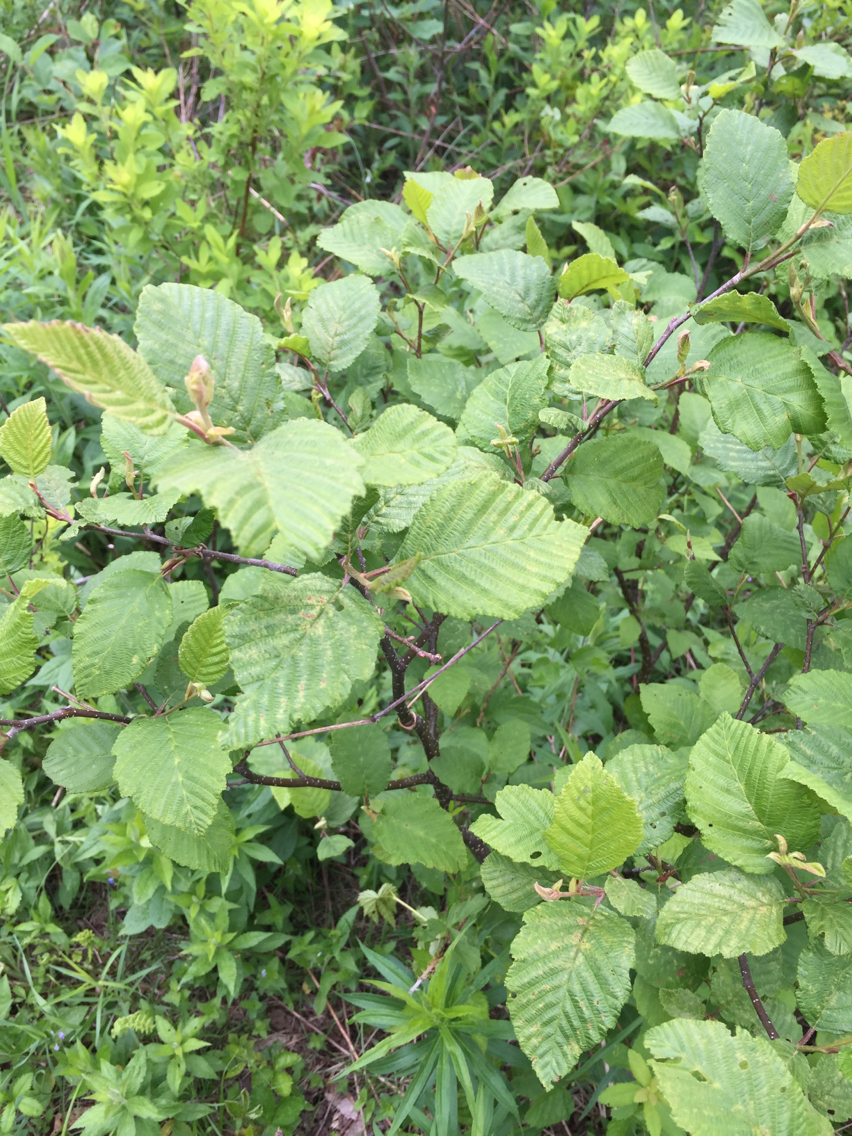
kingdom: Plantae
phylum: Tracheophyta
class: Magnoliopsida
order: Fagales
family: Betulaceae
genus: Alnus
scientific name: Alnus incana
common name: Grey alder
